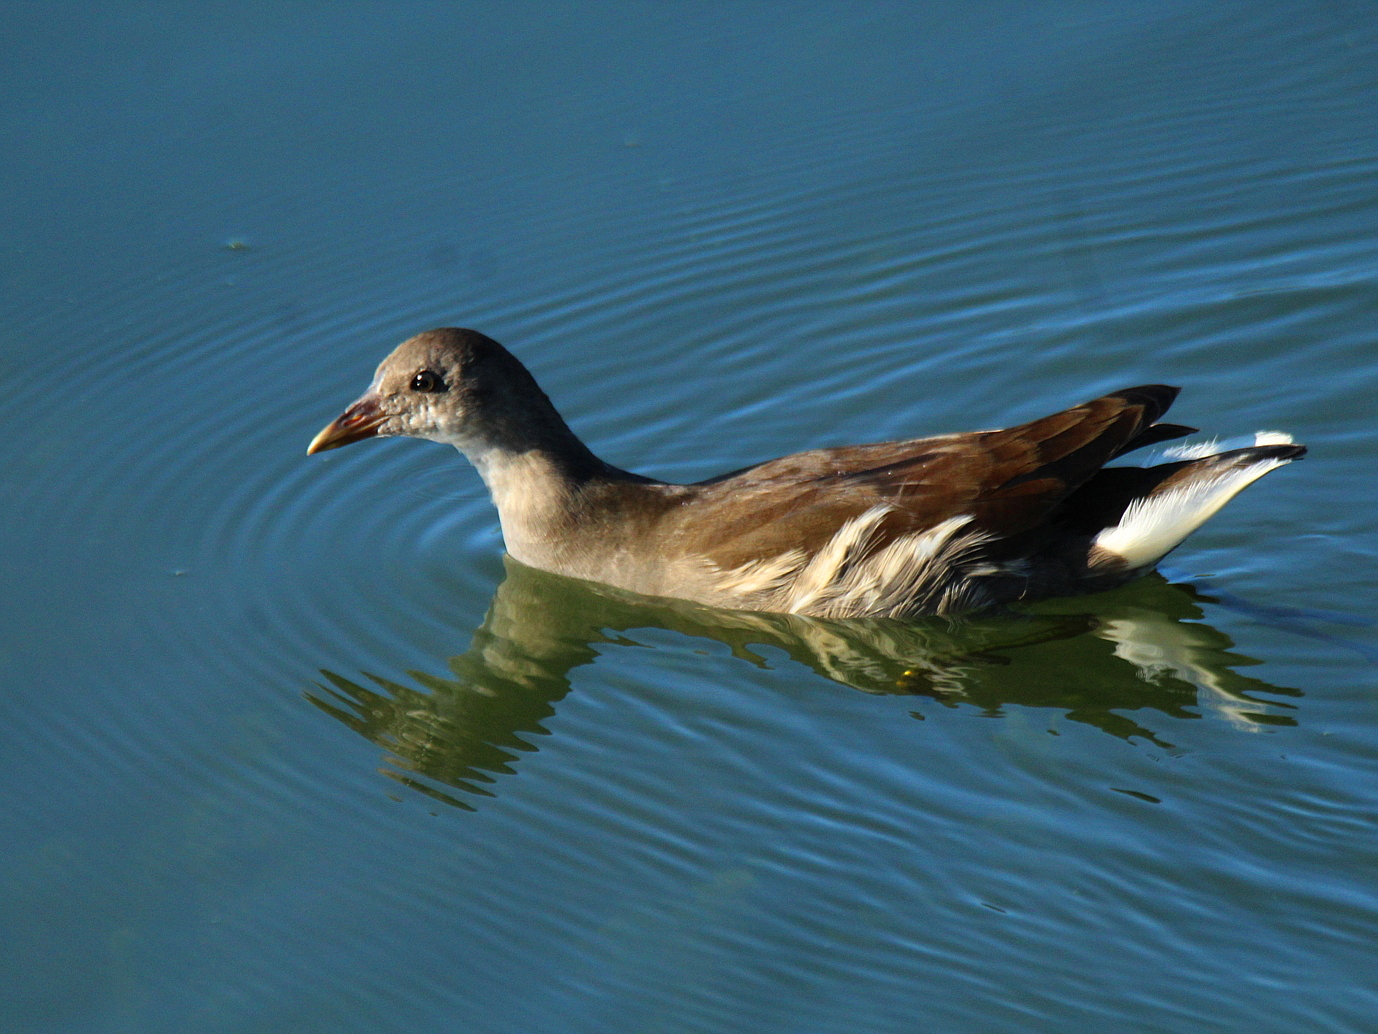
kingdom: Animalia
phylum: Chordata
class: Aves
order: Gruiformes
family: Rallidae
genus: Gallinula
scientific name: Gallinula chloropus
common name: Common moorhen
